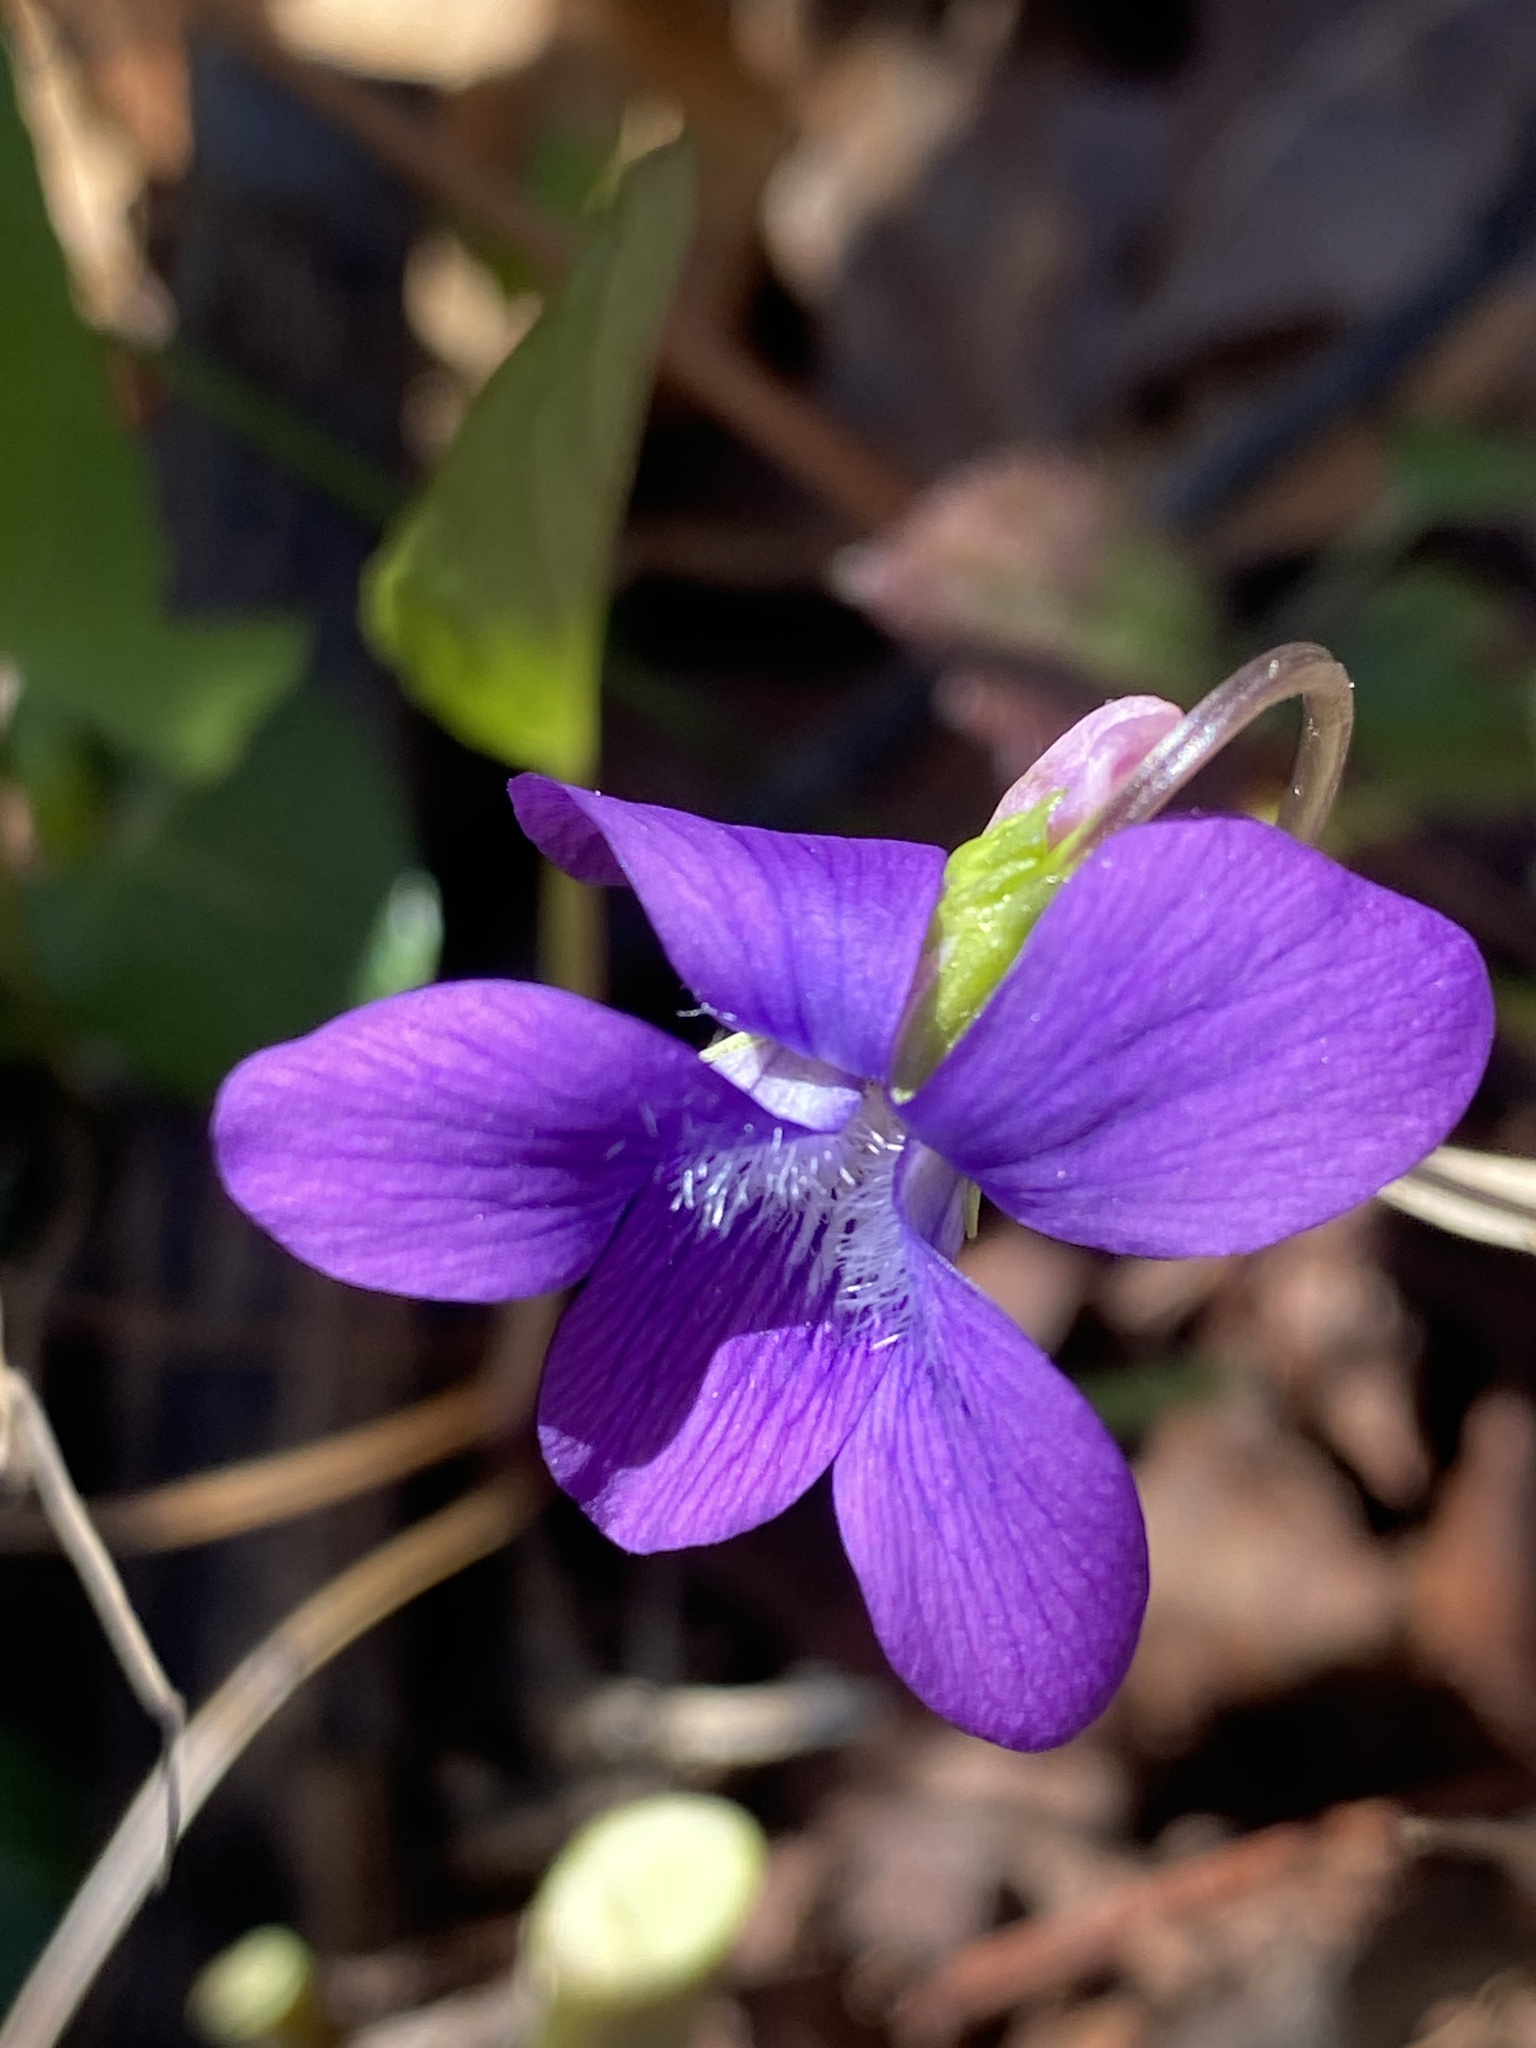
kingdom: Plantae
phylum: Tracheophyta
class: Magnoliopsida
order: Malpighiales
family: Violaceae
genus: Viola
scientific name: Viola sagittata
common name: Arrowhead violet
